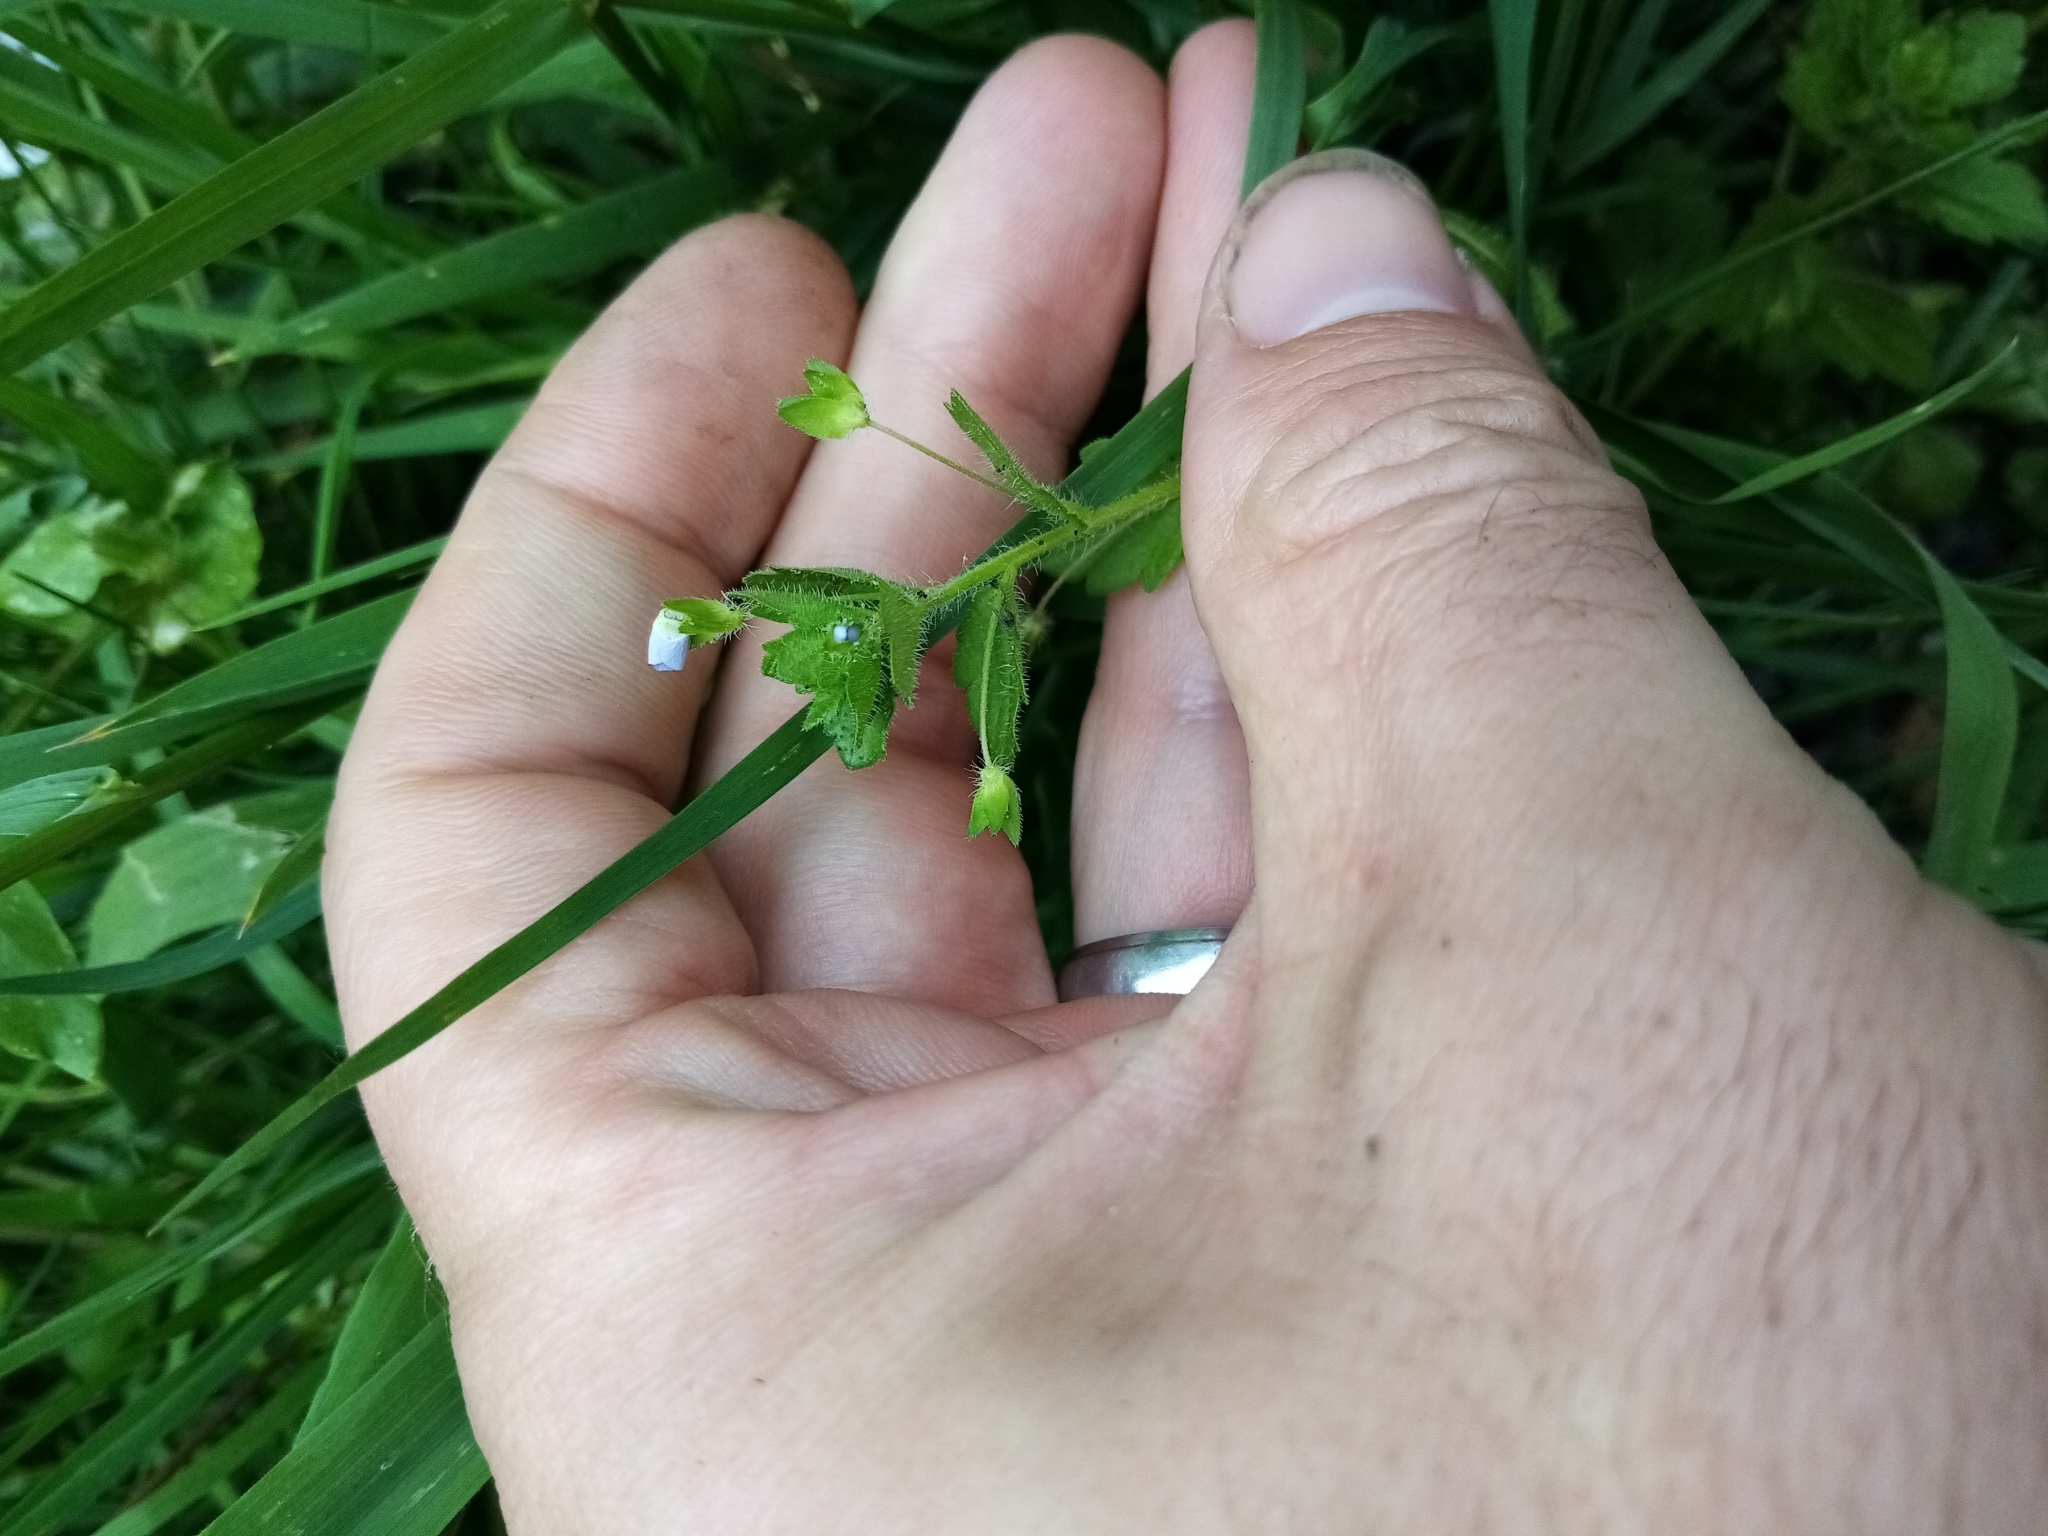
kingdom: Plantae
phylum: Tracheophyta
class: Magnoliopsida
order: Lamiales
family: Plantaginaceae
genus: Veronica
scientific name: Veronica persica
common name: Common field-speedwell
